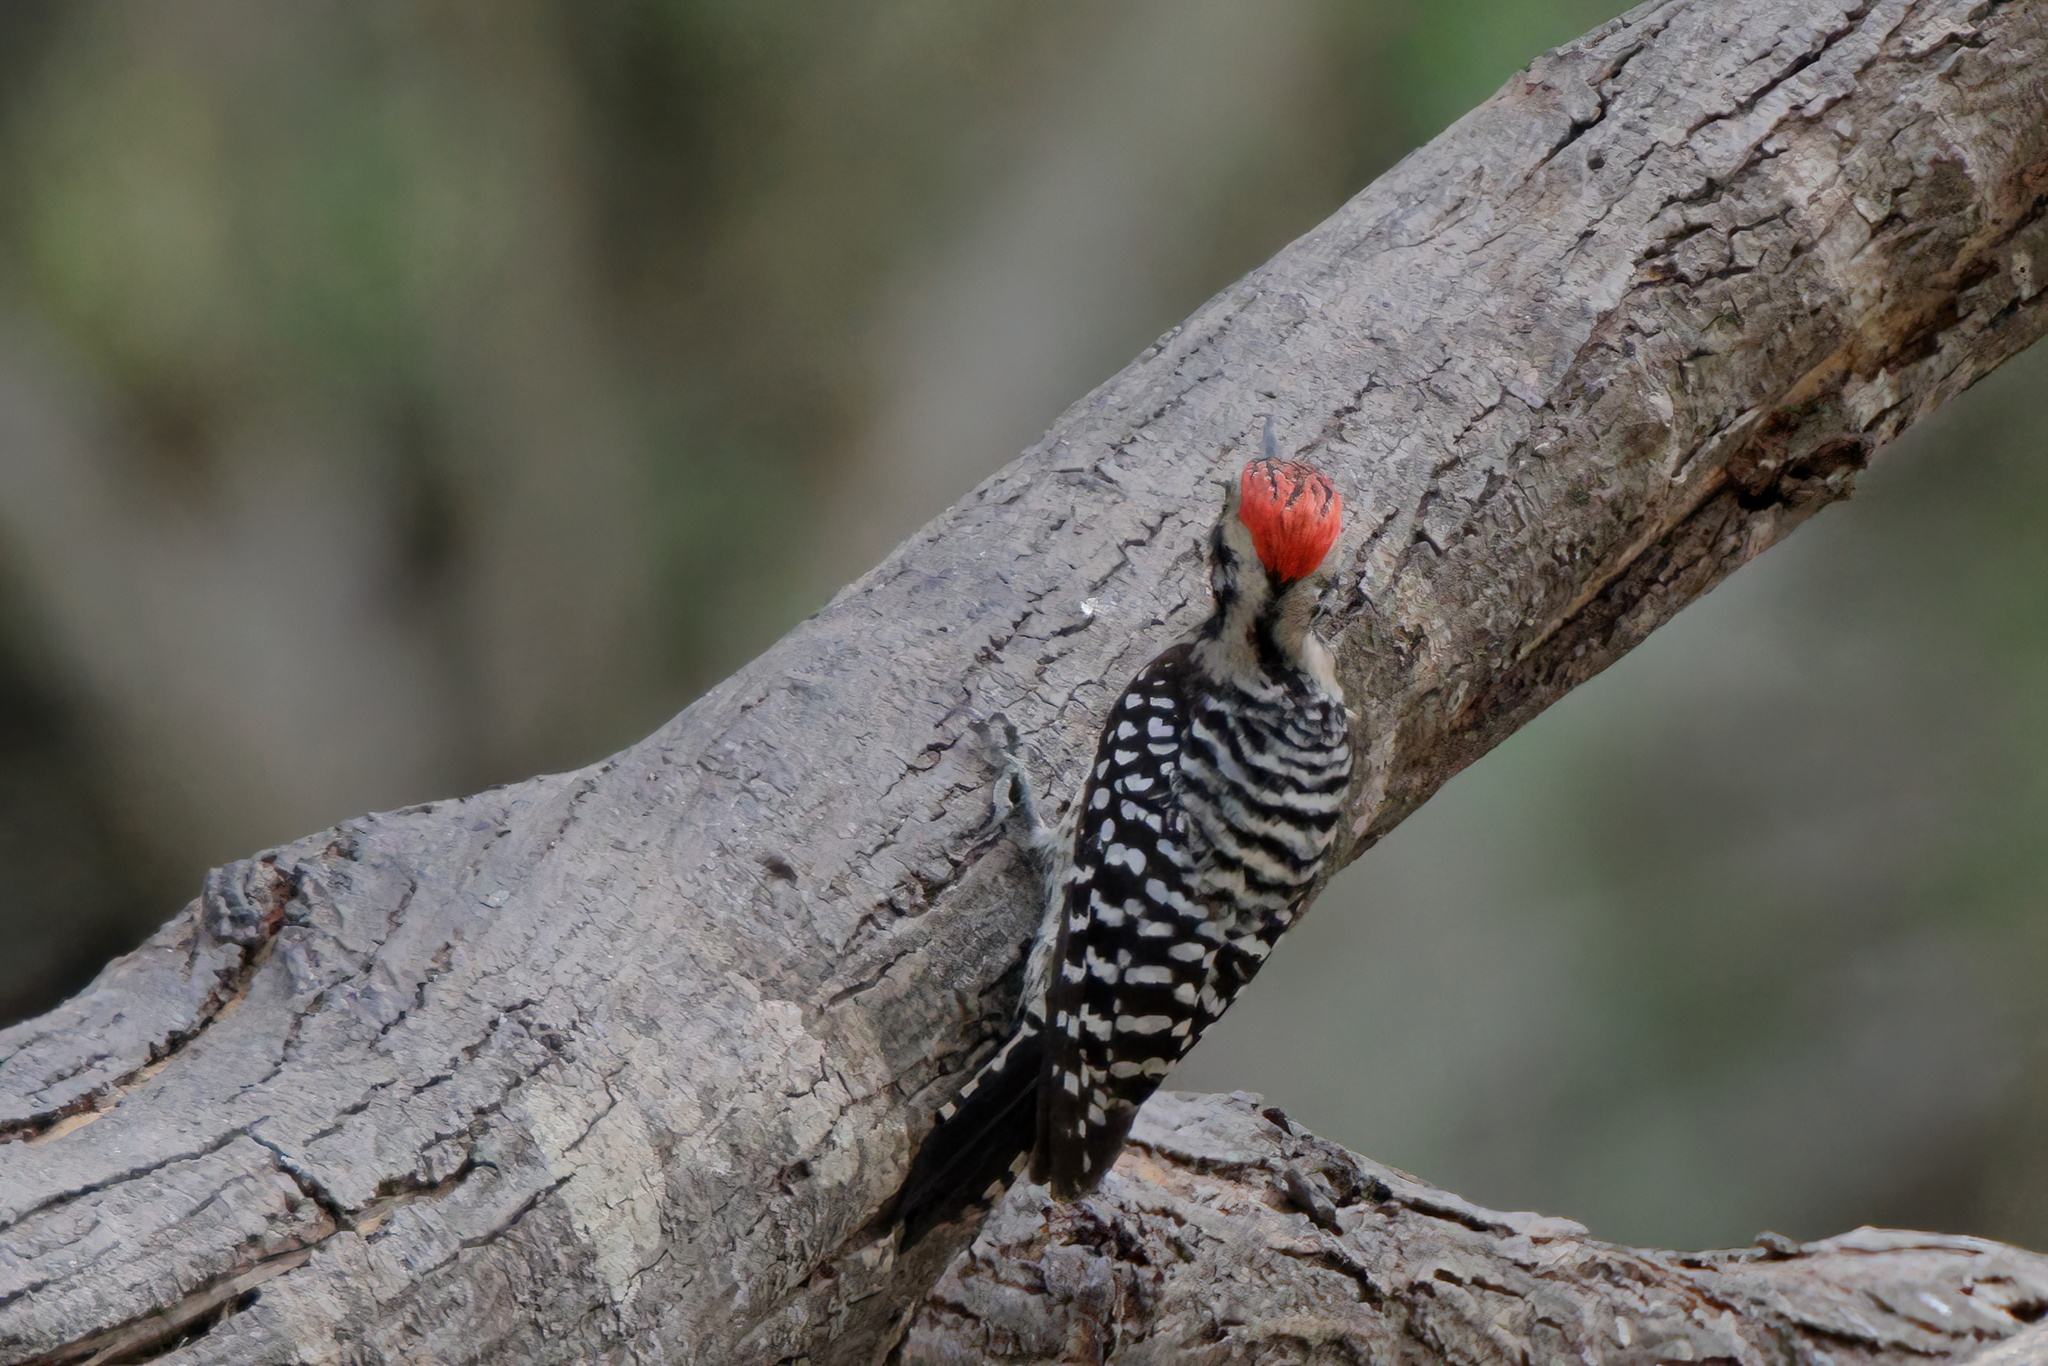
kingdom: Animalia
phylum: Chordata
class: Aves
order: Piciformes
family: Picidae
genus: Dryobates
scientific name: Dryobates scalaris
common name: Ladder-backed woodpecker
